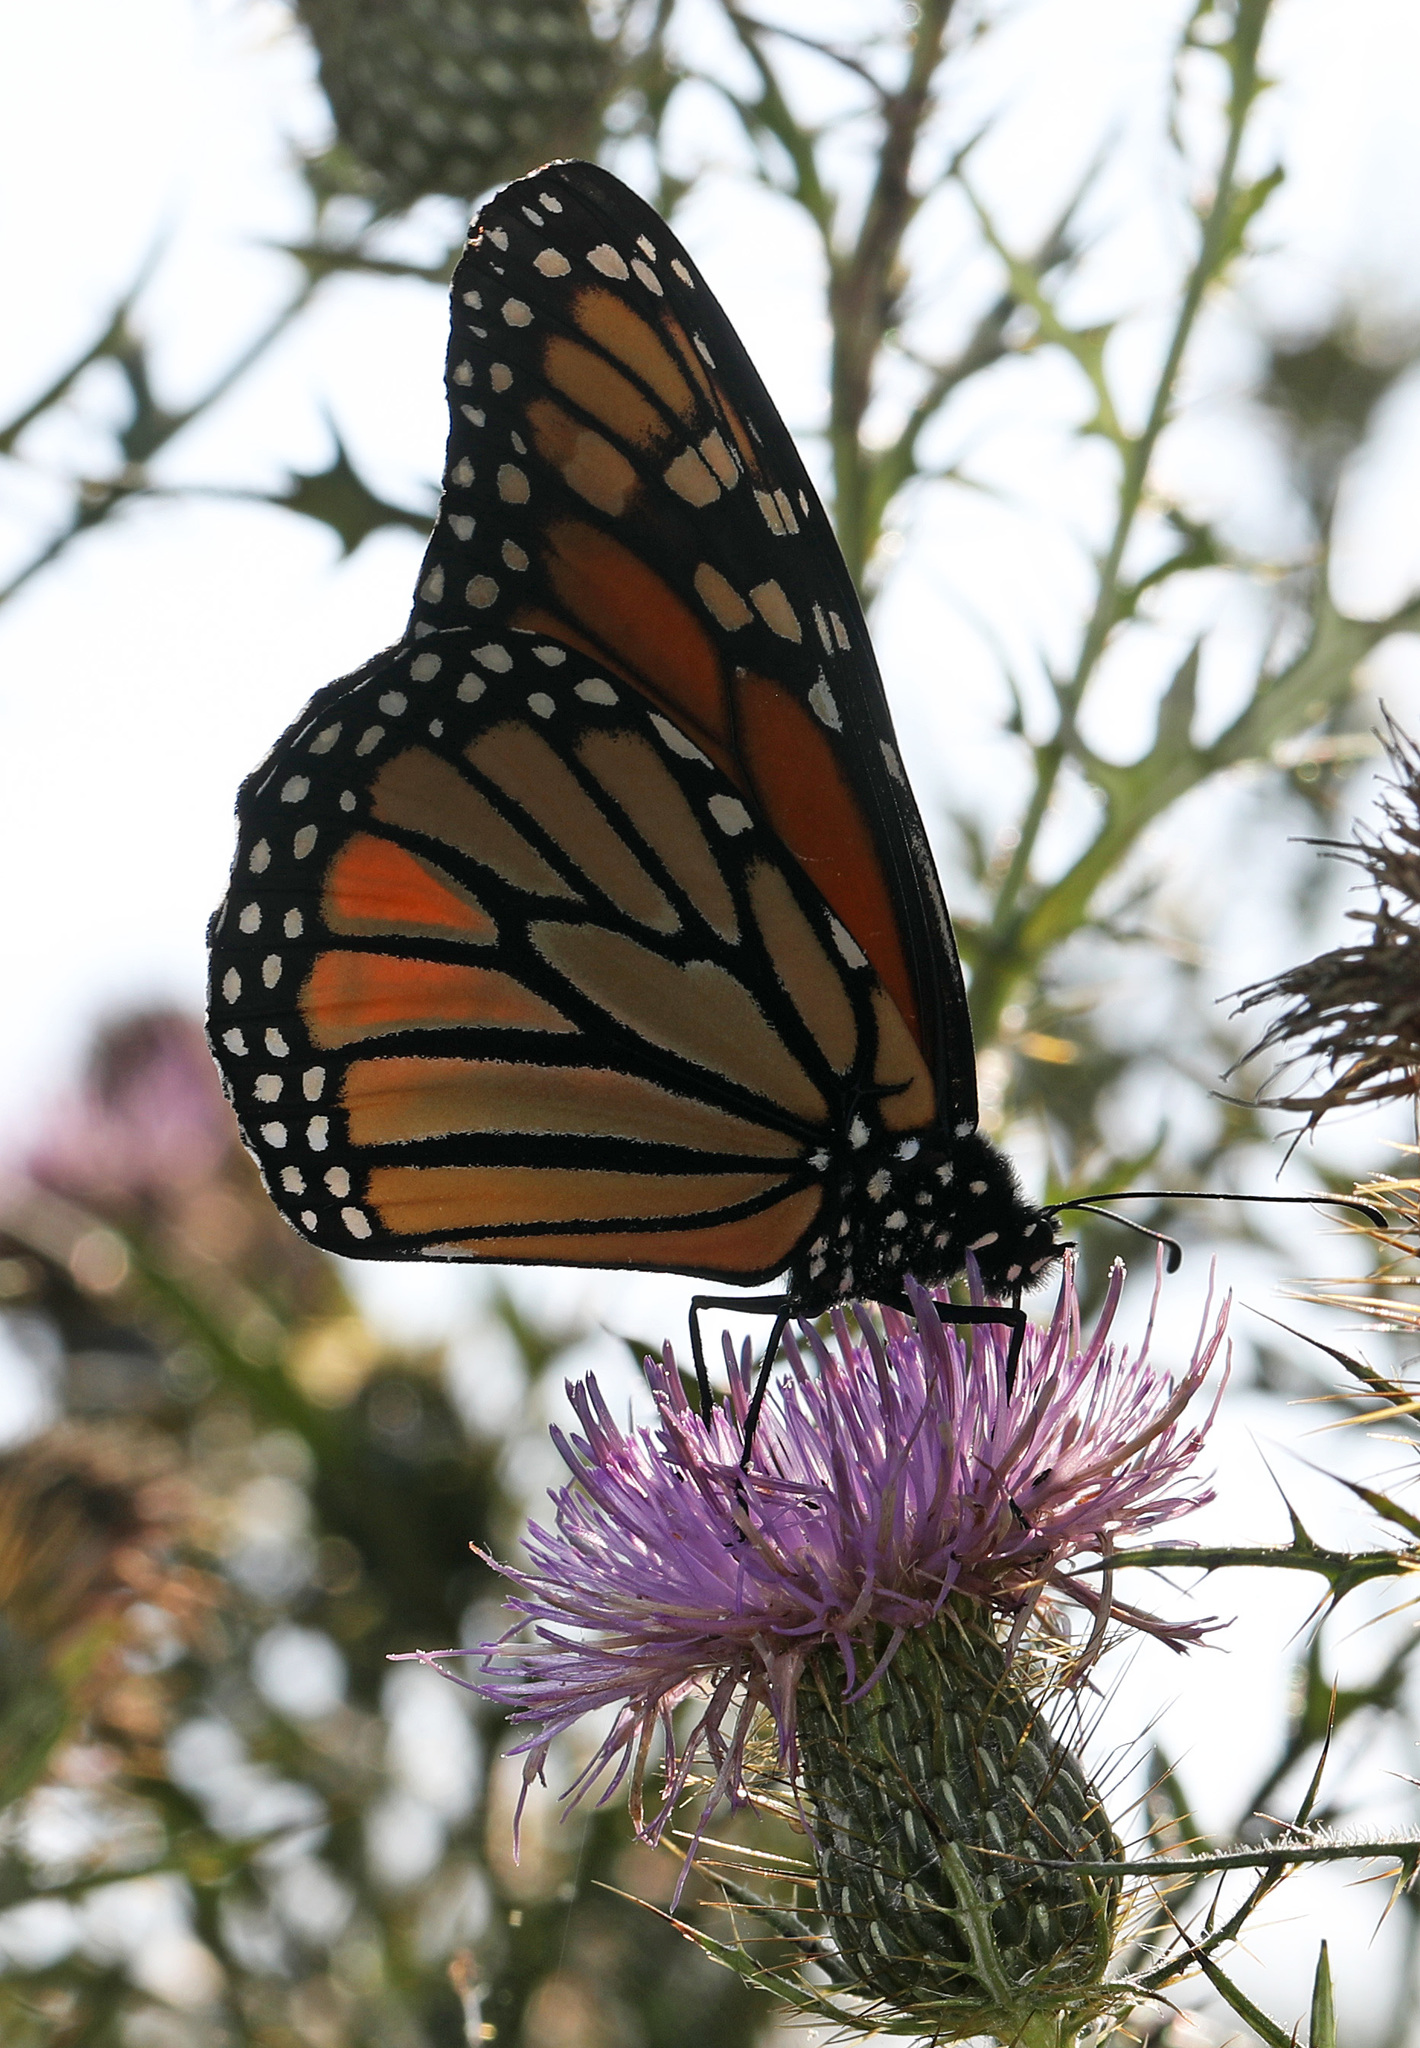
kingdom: Animalia
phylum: Arthropoda
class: Insecta
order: Lepidoptera
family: Nymphalidae
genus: Danaus
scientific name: Danaus plexippus
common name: Monarch
